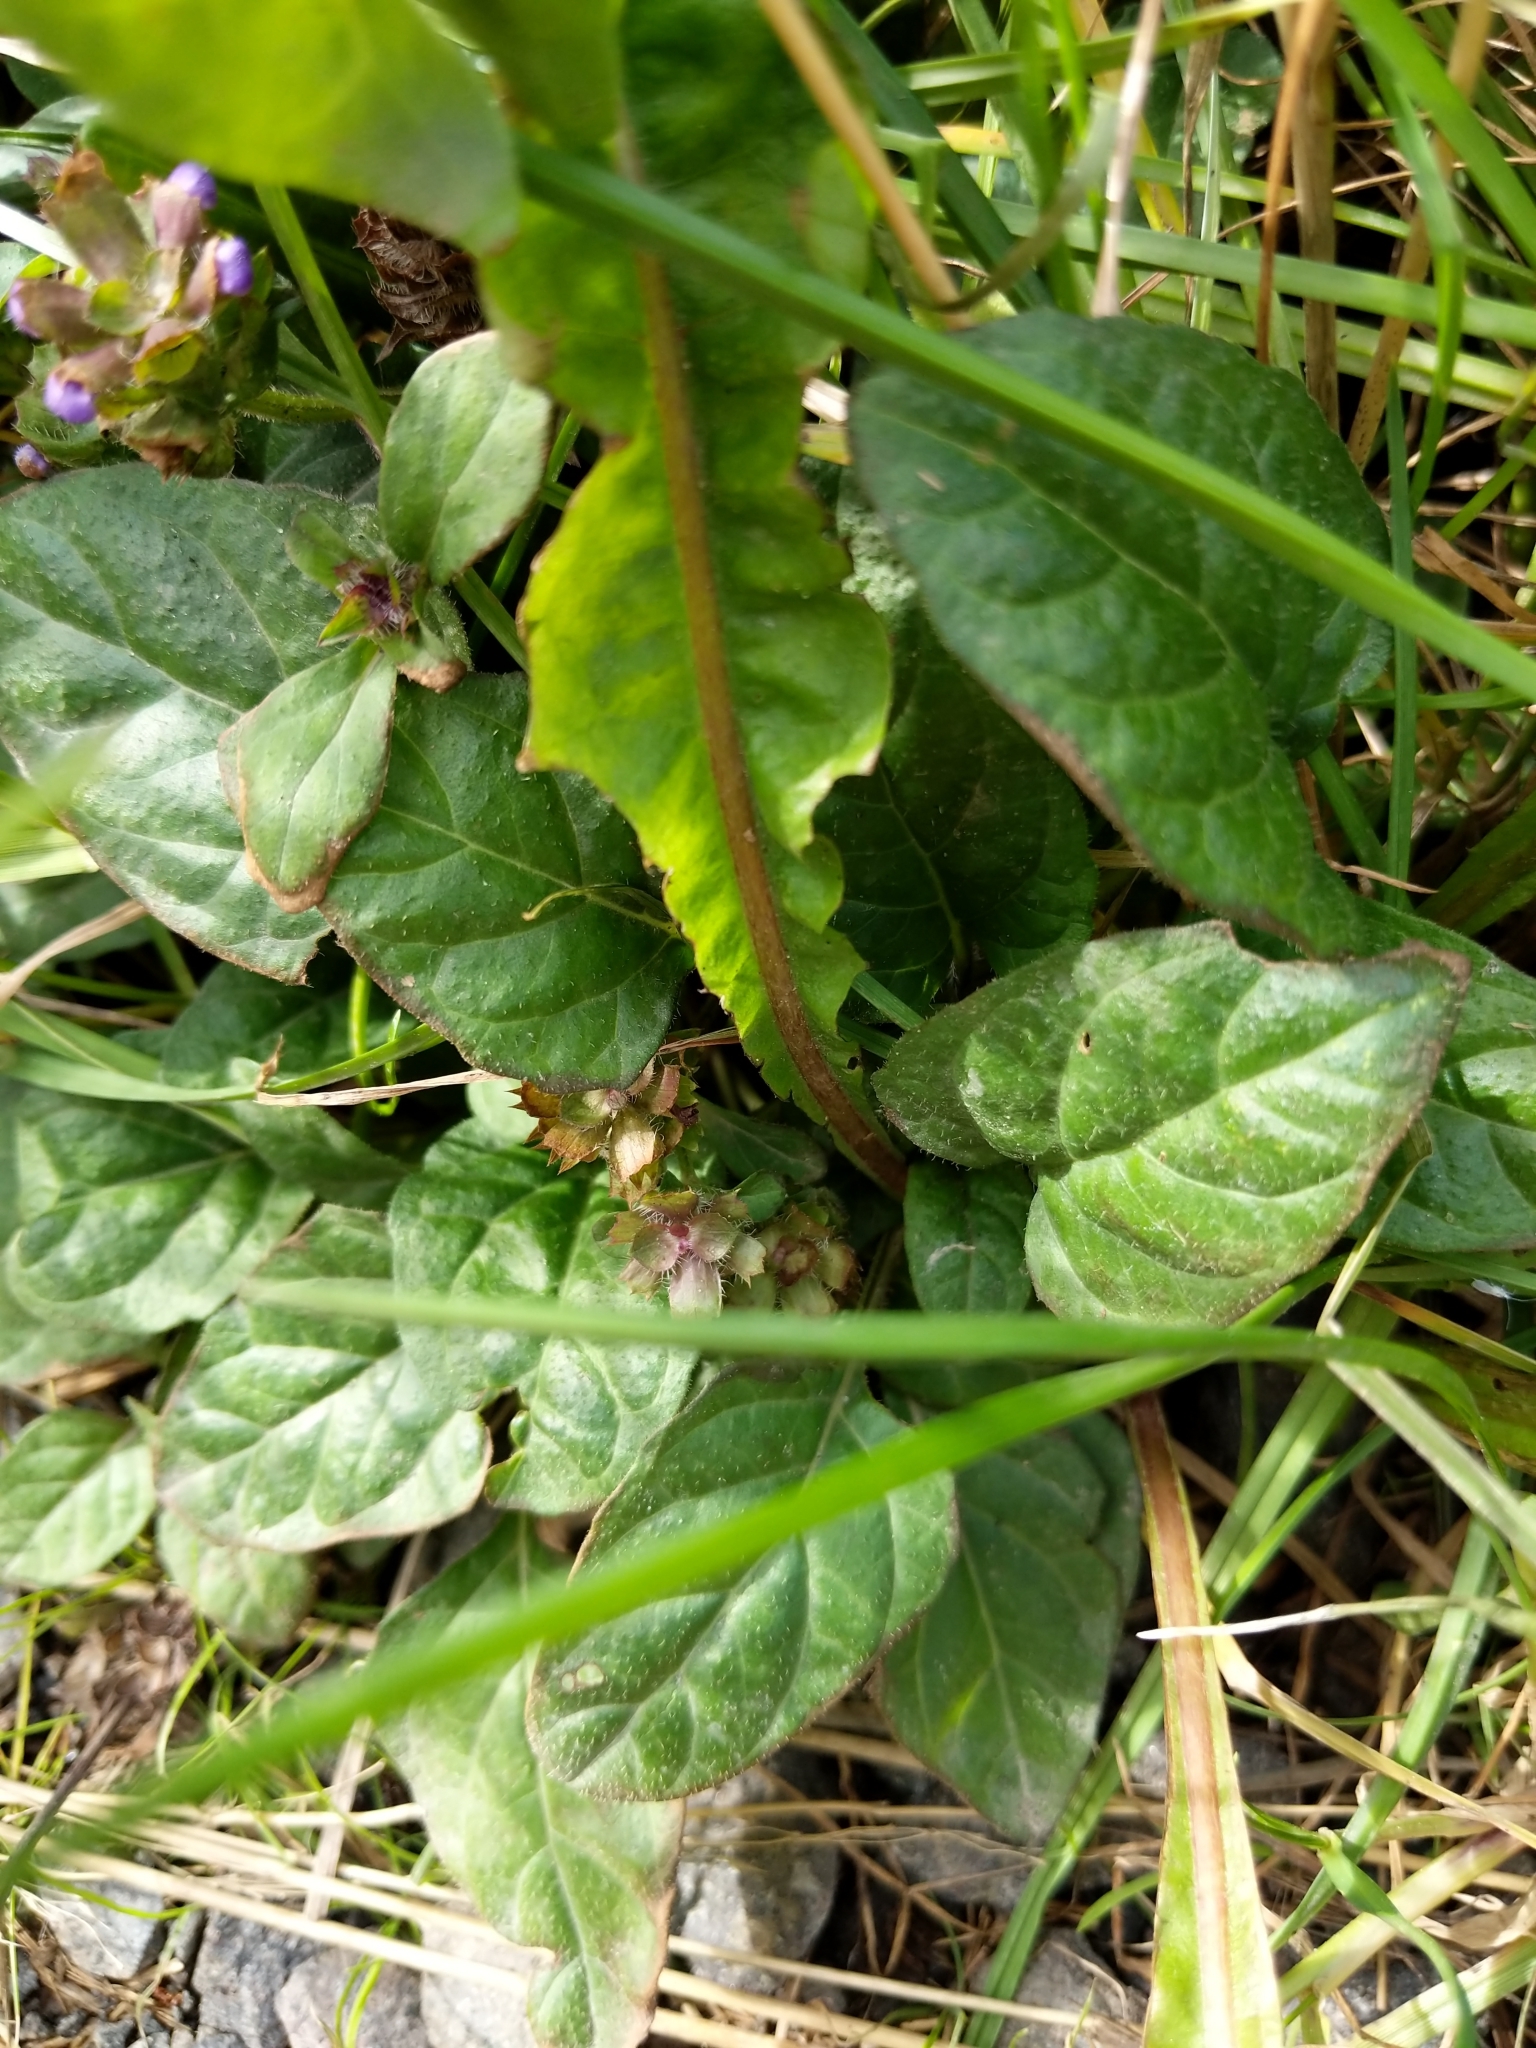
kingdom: Plantae
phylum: Tracheophyta
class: Magnoliopsida
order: Lamiales
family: Lamiaceae
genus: Prunella
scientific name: Prunella vulgaris
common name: Heal-all
